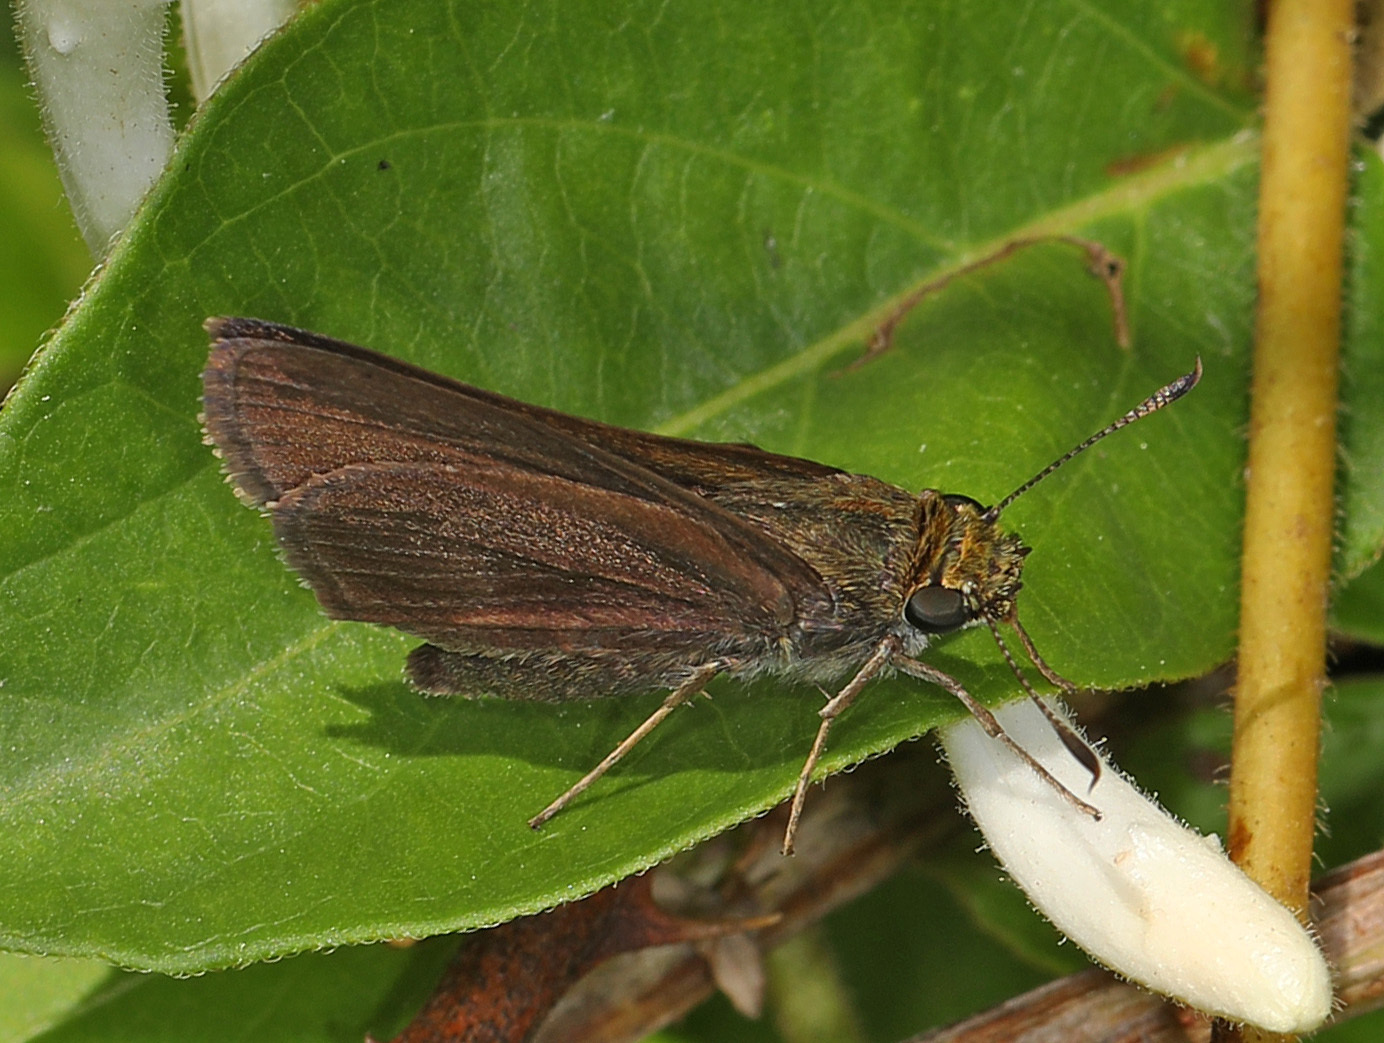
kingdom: Animalia
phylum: Arthropoda
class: Insecta
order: Lepidoptera
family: Hesperiidae
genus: Euphyes
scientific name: Euphyes vestris
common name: Dun skipper
